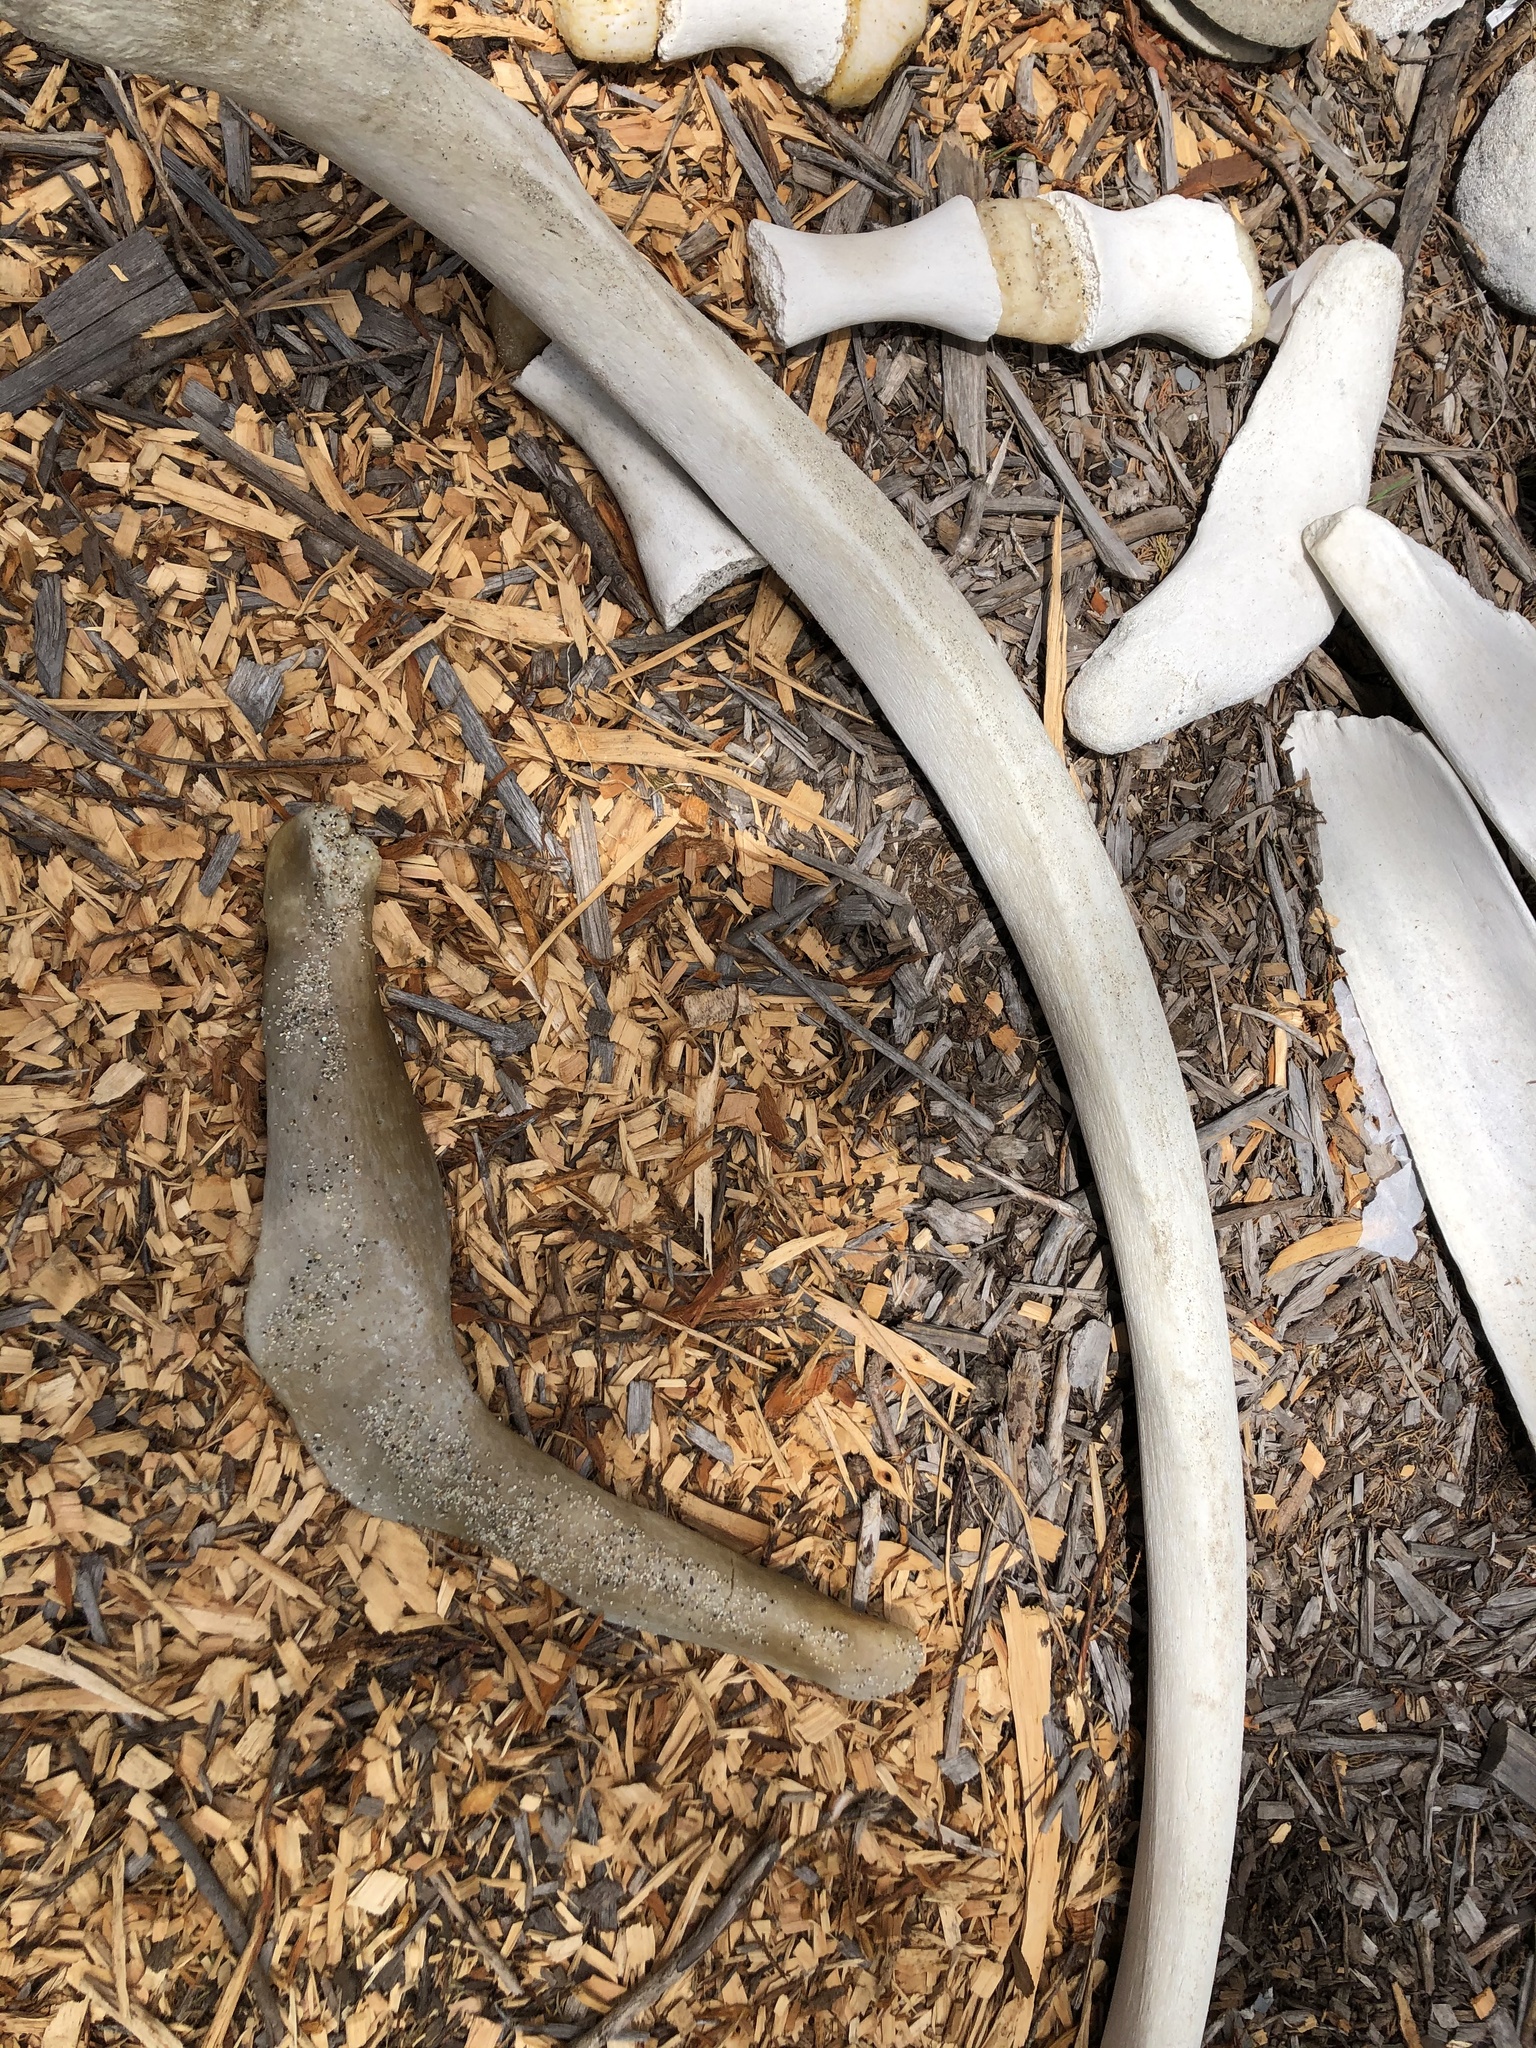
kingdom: Animalia
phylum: Chordata
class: Mammalia
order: Cetacea
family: Eschrichtiidae
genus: Eschrichtius
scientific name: Eschrichtius robustus
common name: Gray whale
